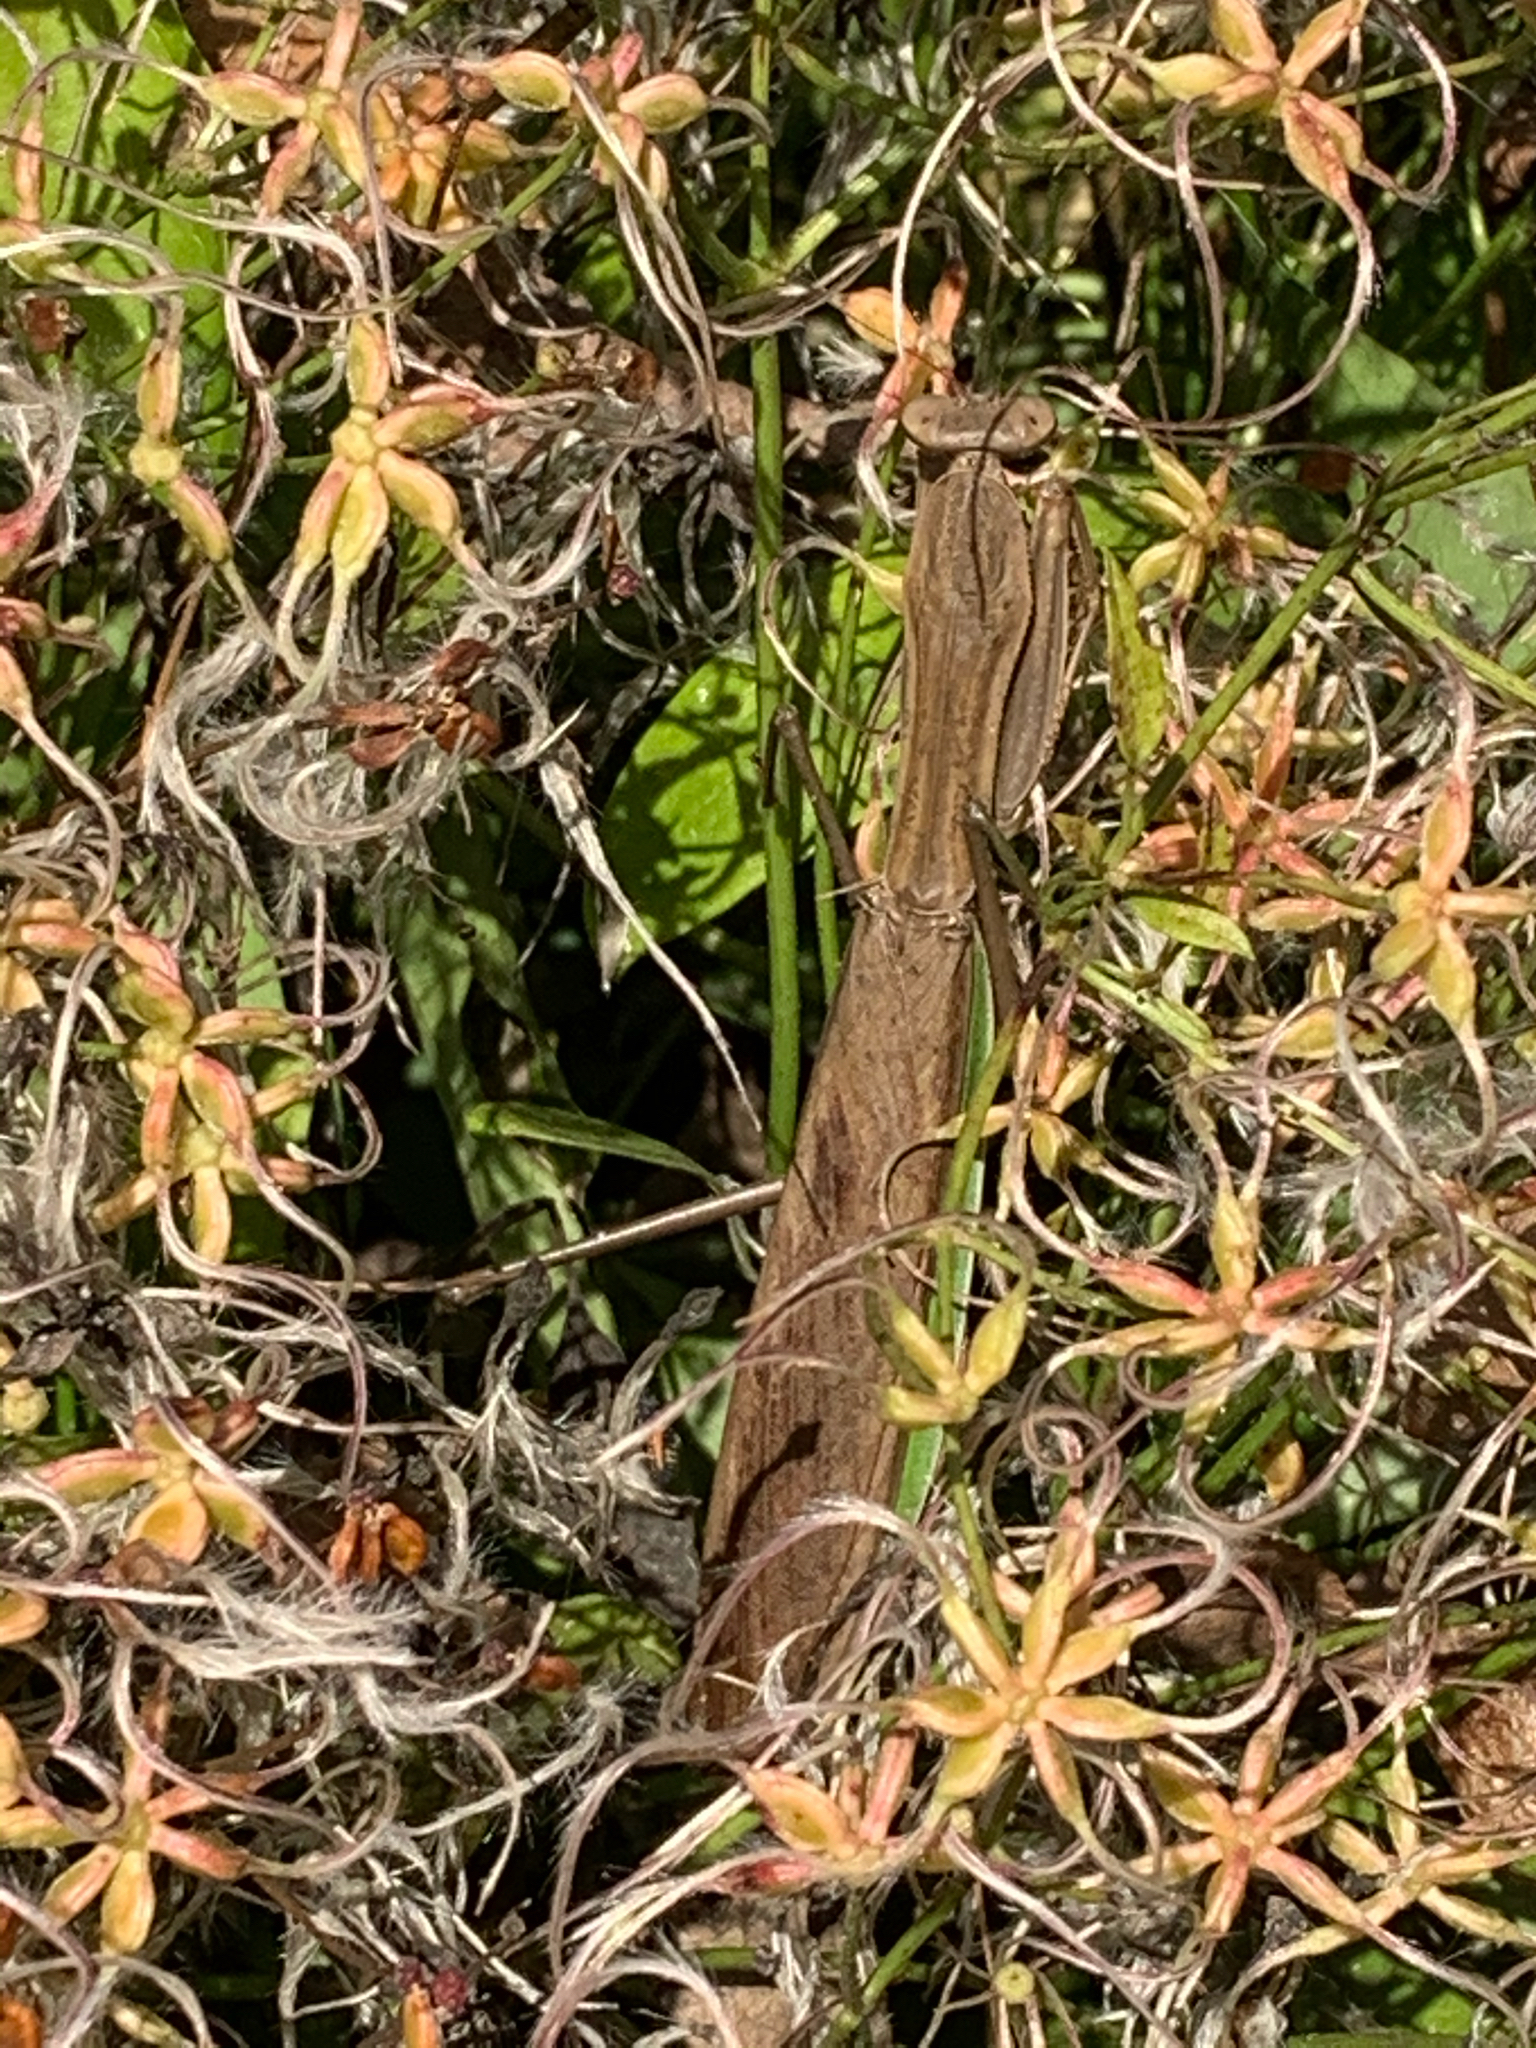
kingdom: Animalia
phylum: Arthropoda
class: Insecta
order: Mantodea
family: Mantidae
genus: Tenodera
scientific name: Tenodera sinensis
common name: Chinese mantis
